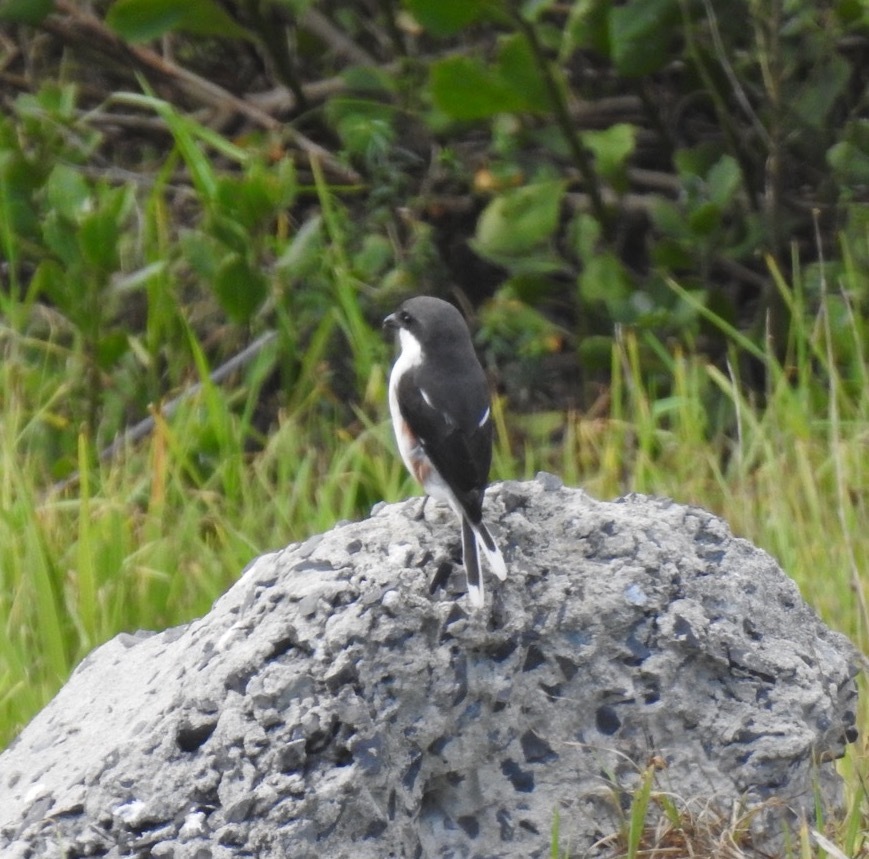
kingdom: Animalia
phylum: Chordata
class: Aves
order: Passeriformes
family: Laniidae
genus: Lanius
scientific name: Lanius collaris
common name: Southern fiscal
